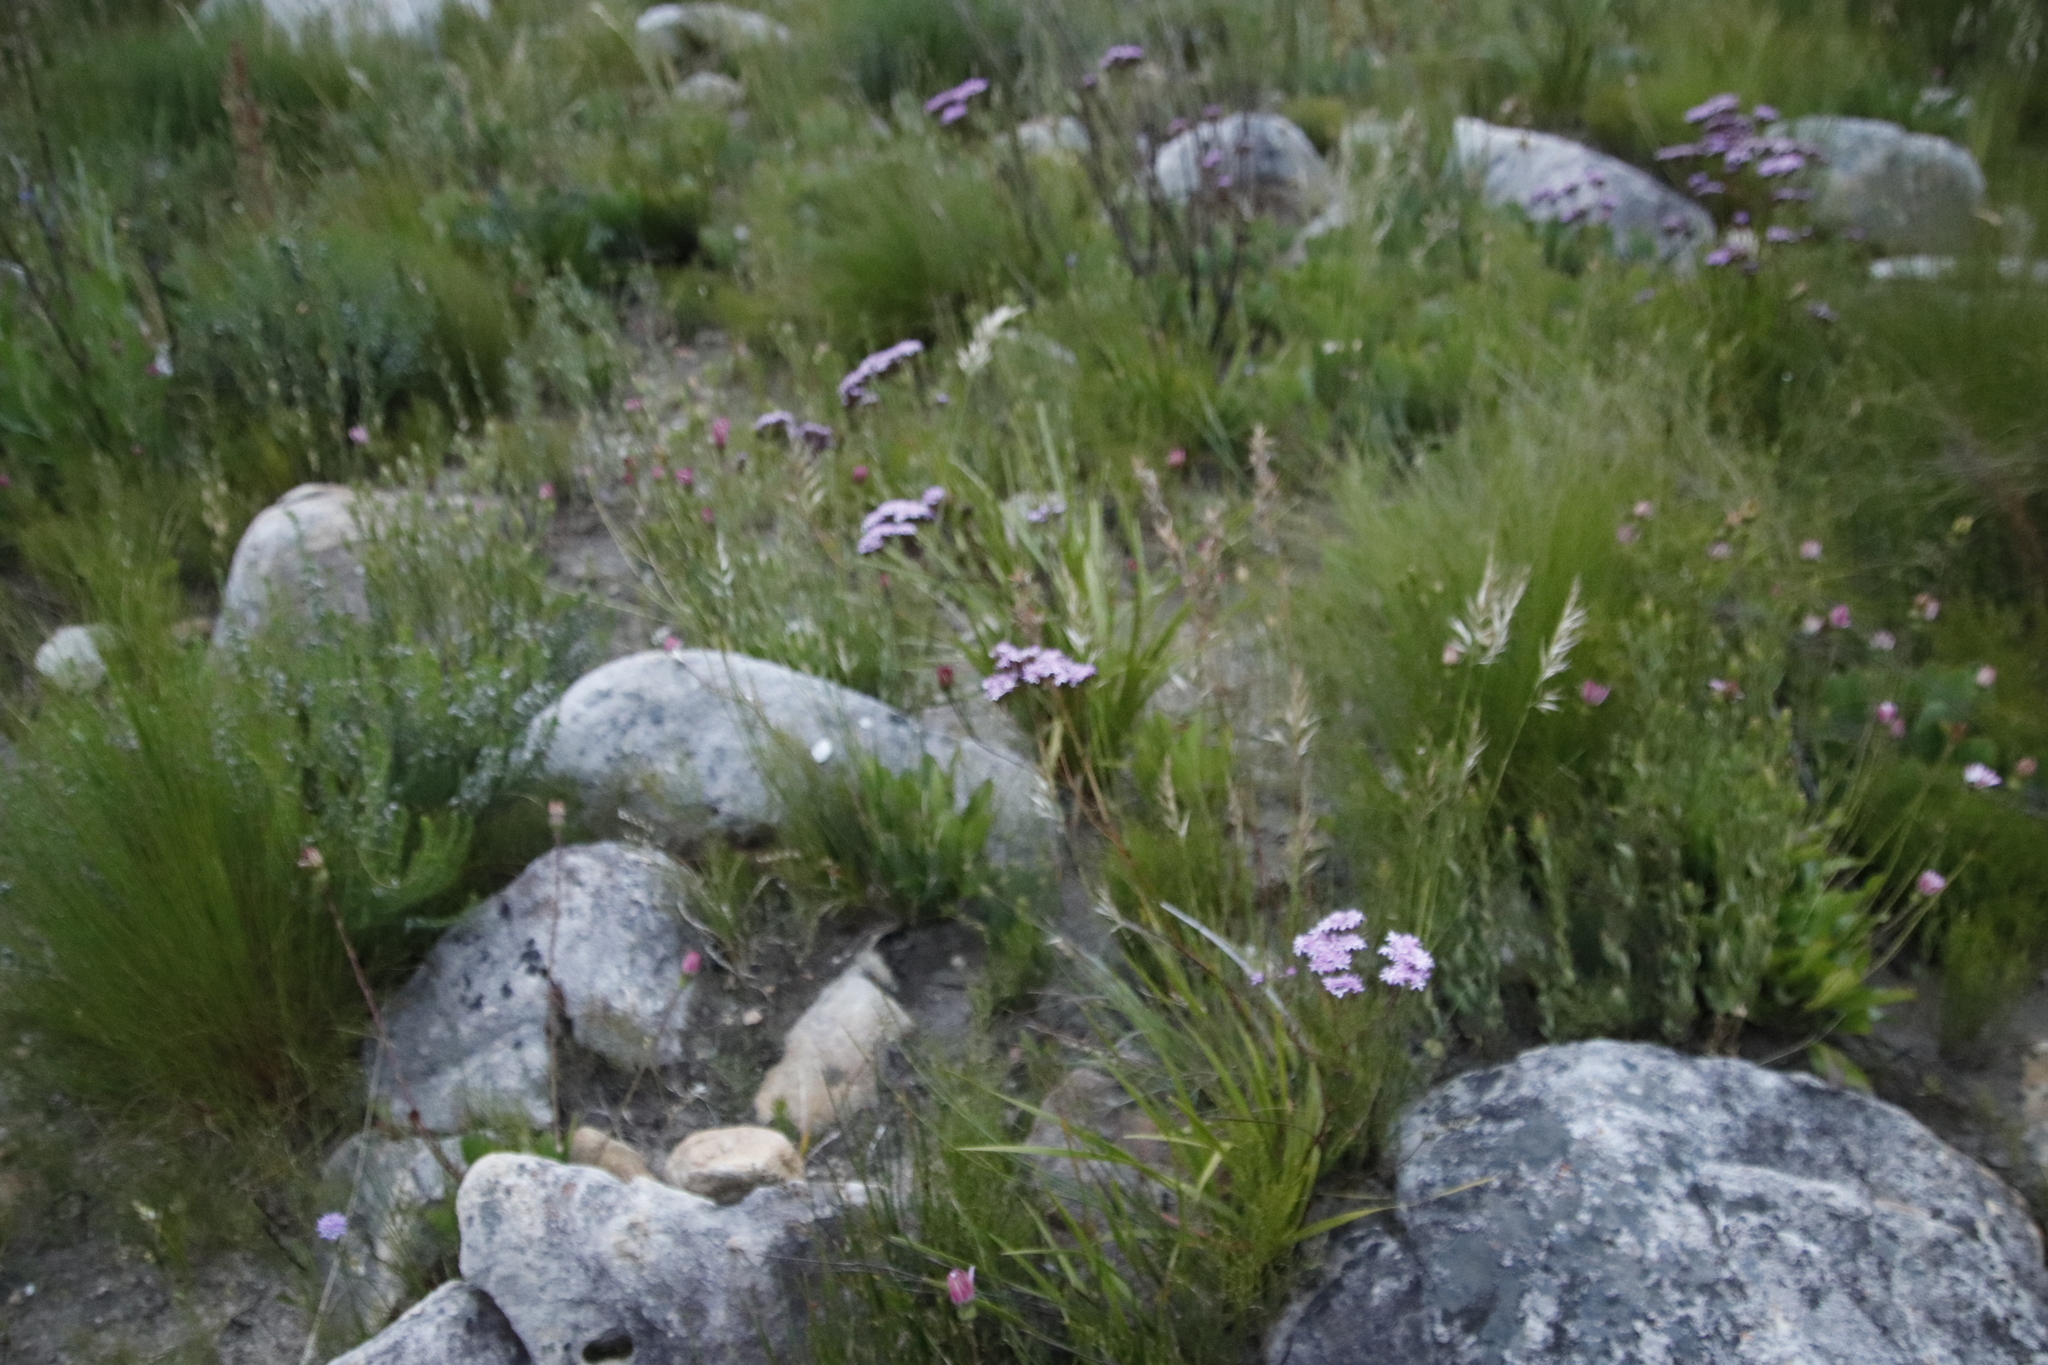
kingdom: Plantae
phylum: Tracheophyta
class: Magnoliopsida
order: Asterales
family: Asteraceae
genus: Corymbium
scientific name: Corymbium glabrum
